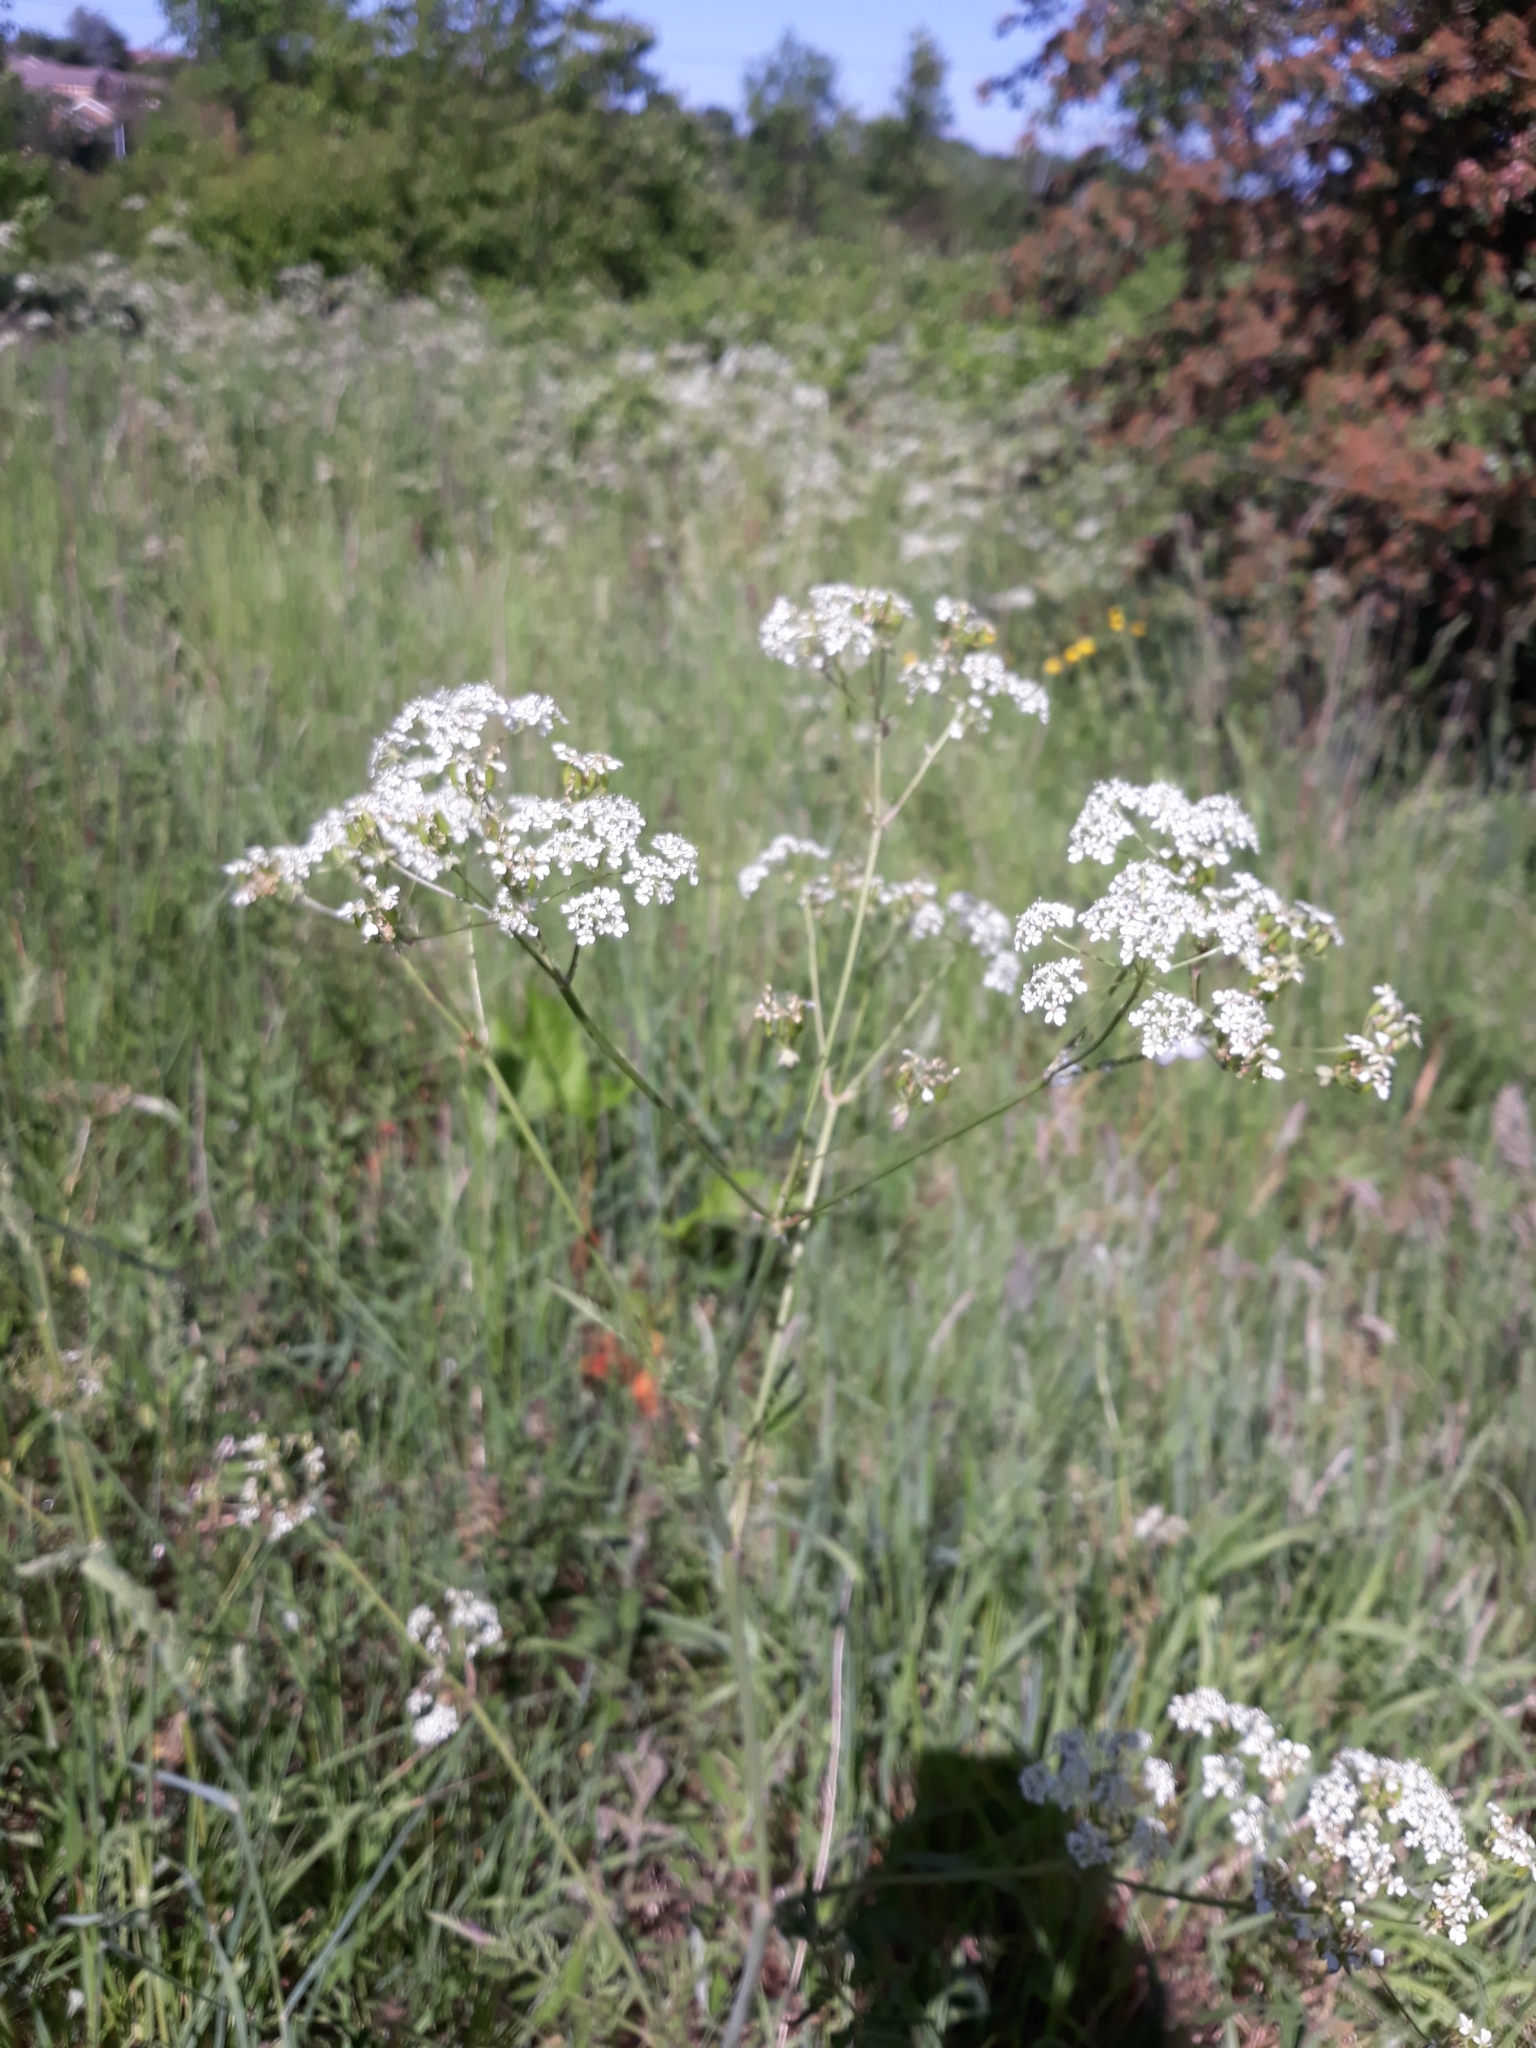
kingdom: Plantae
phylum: Tracheophyta
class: Magnoliopsida
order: Apiales
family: Apiaceae
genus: Anthriscus
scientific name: Anthriscus sylvestris
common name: Cow parsley
